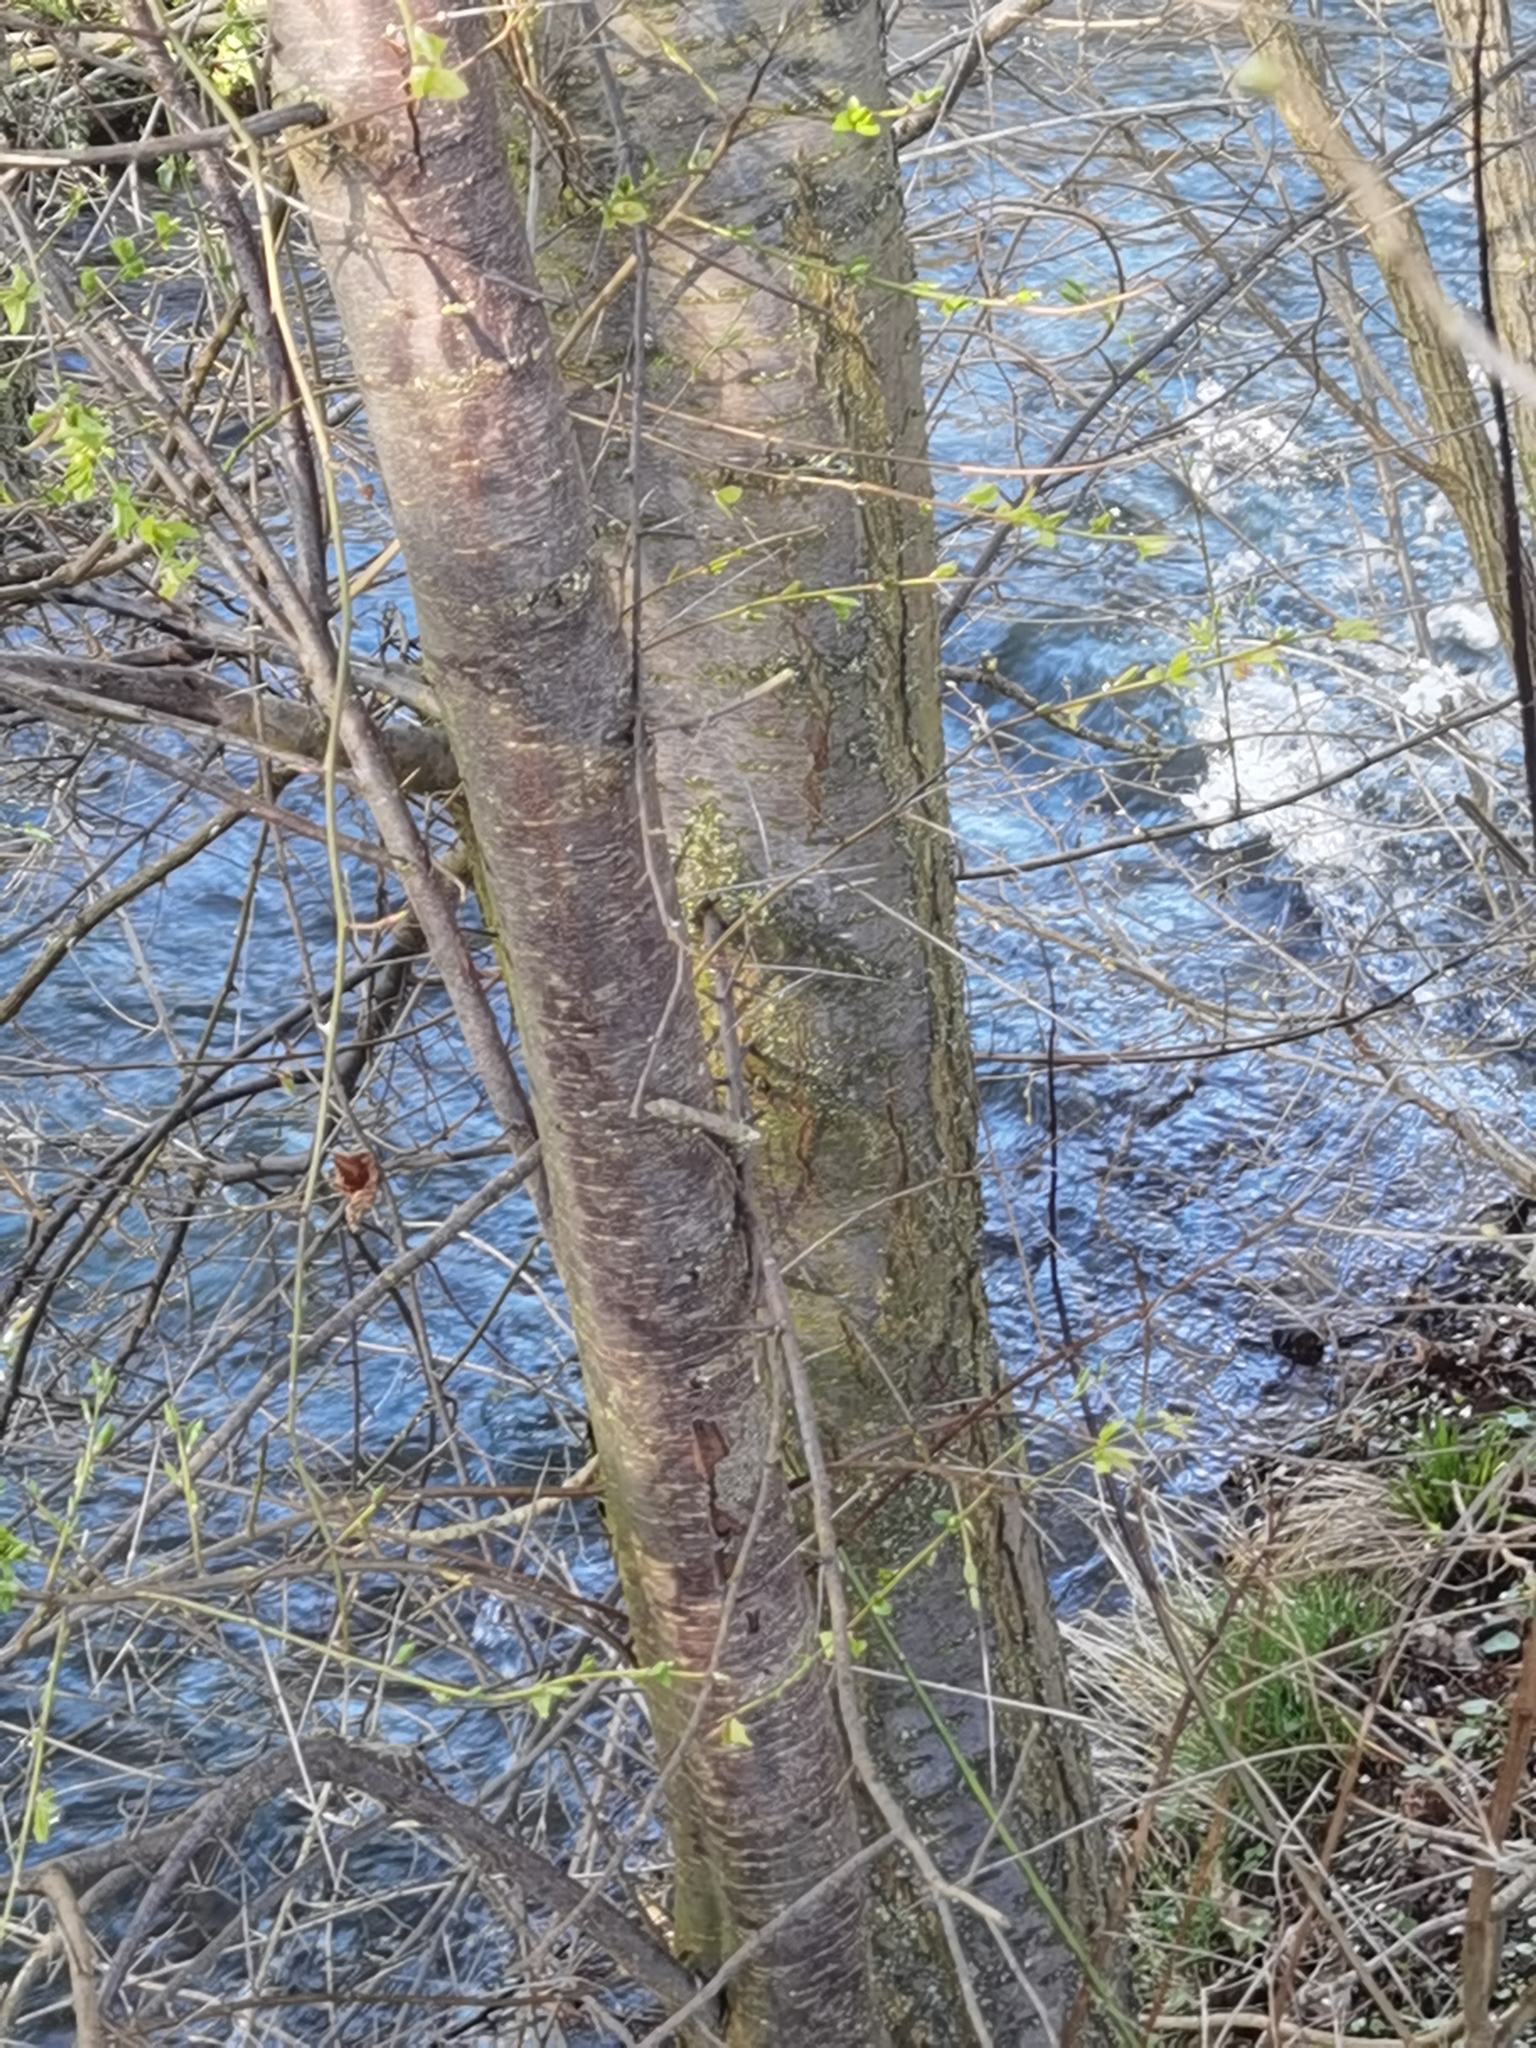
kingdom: Plantae
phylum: Tracheophyta
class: Magnoliopsida
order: Rosales
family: Rosaceae
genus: Prunus
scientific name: Prunus cerasifera
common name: Cherry plum
